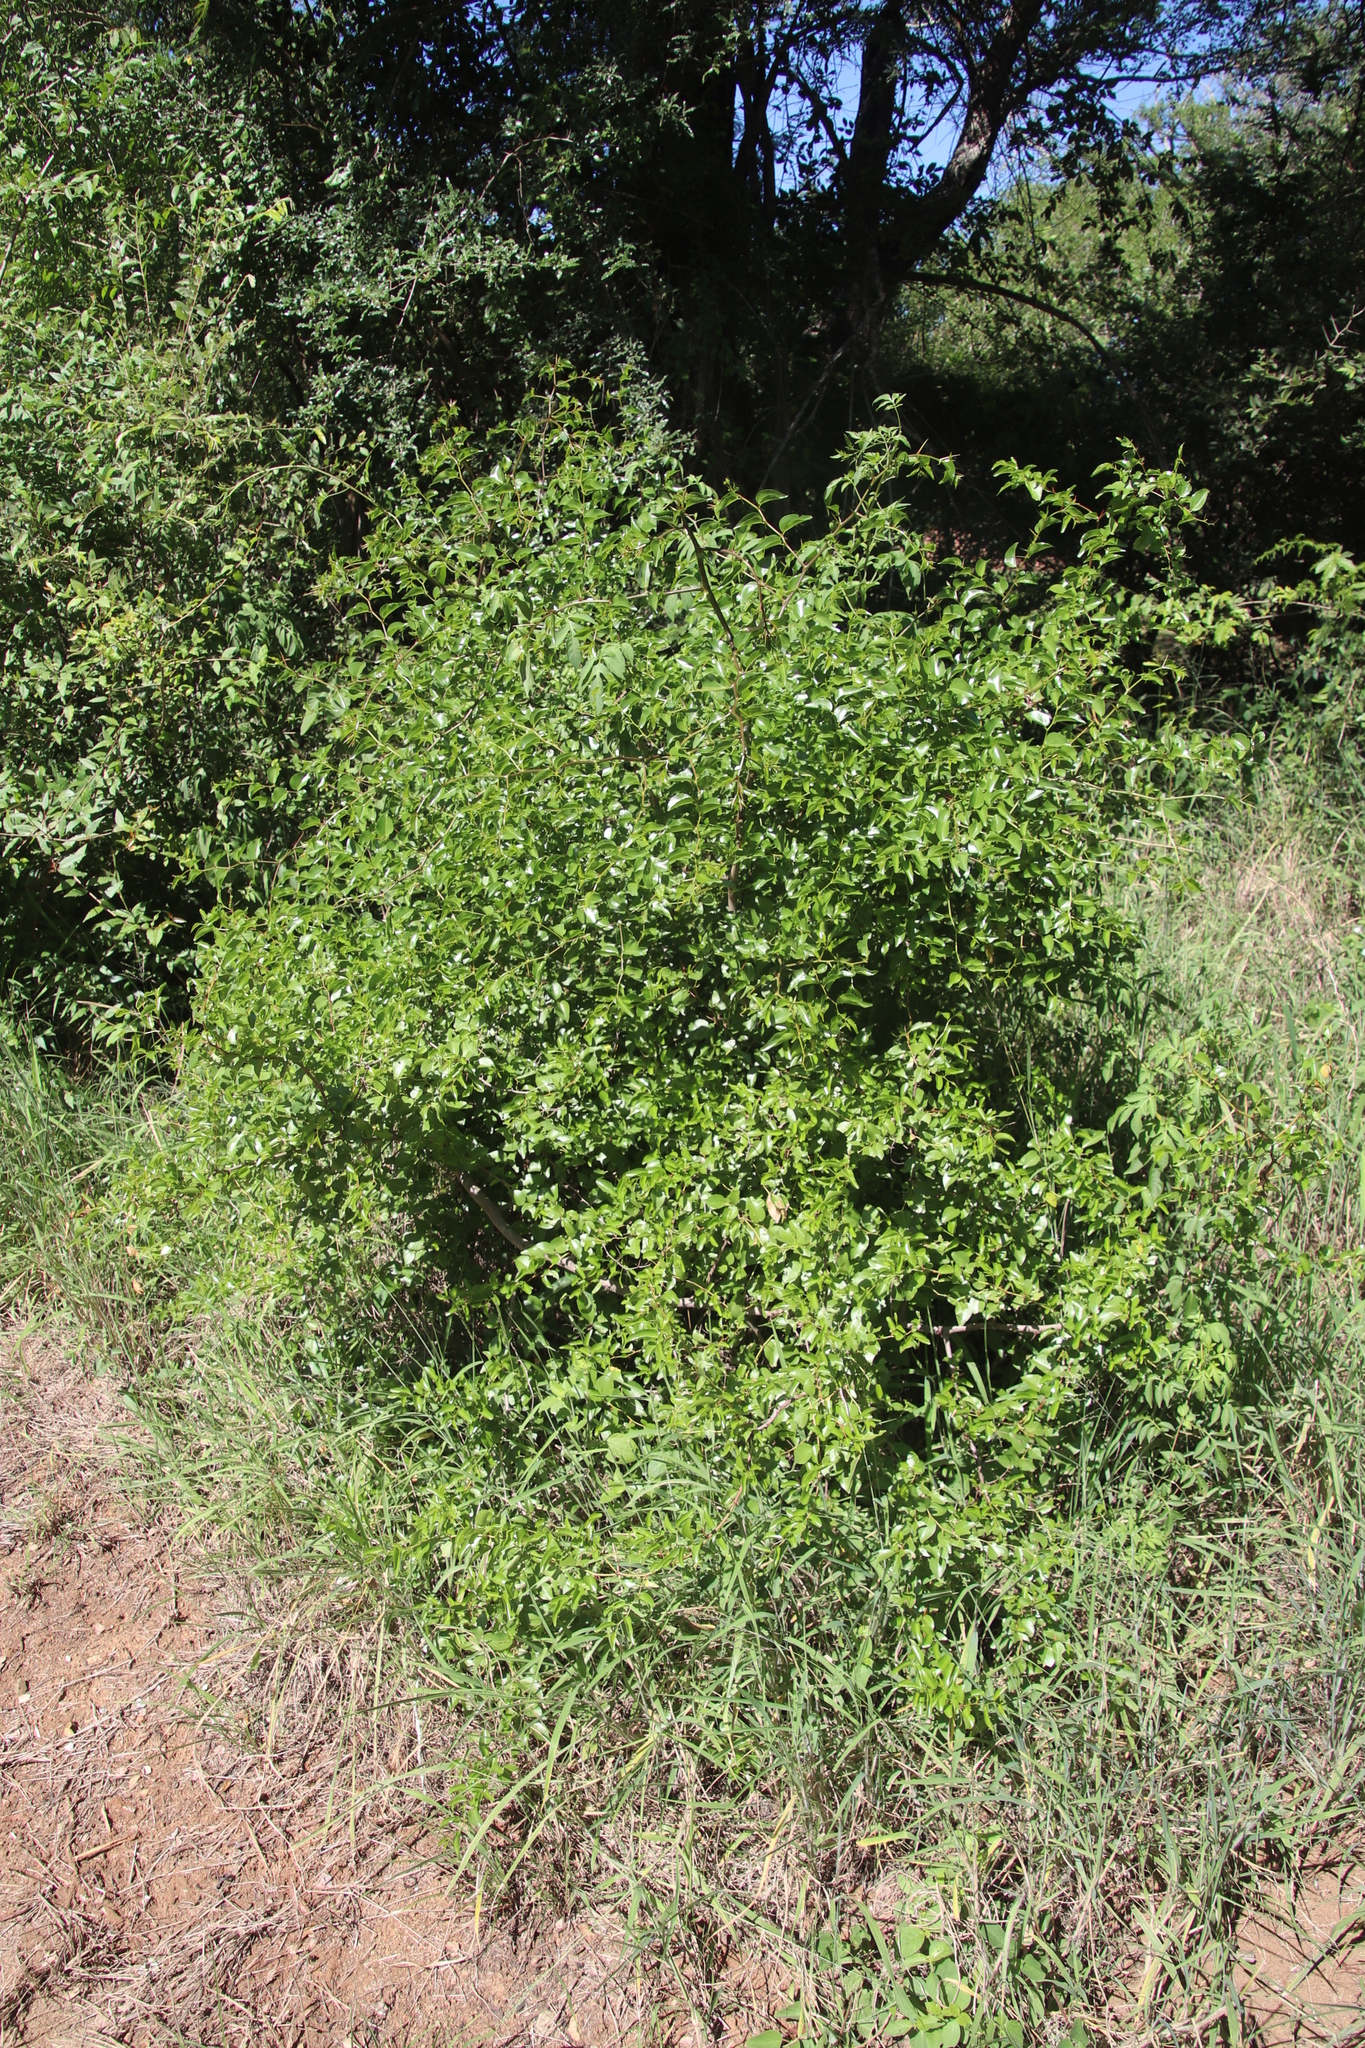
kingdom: Plantae
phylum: Tracheophyta
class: Magnoliopsida
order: Rosales
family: Rhamnaceae
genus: Ziziphus
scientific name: Ziziphus mucronata
